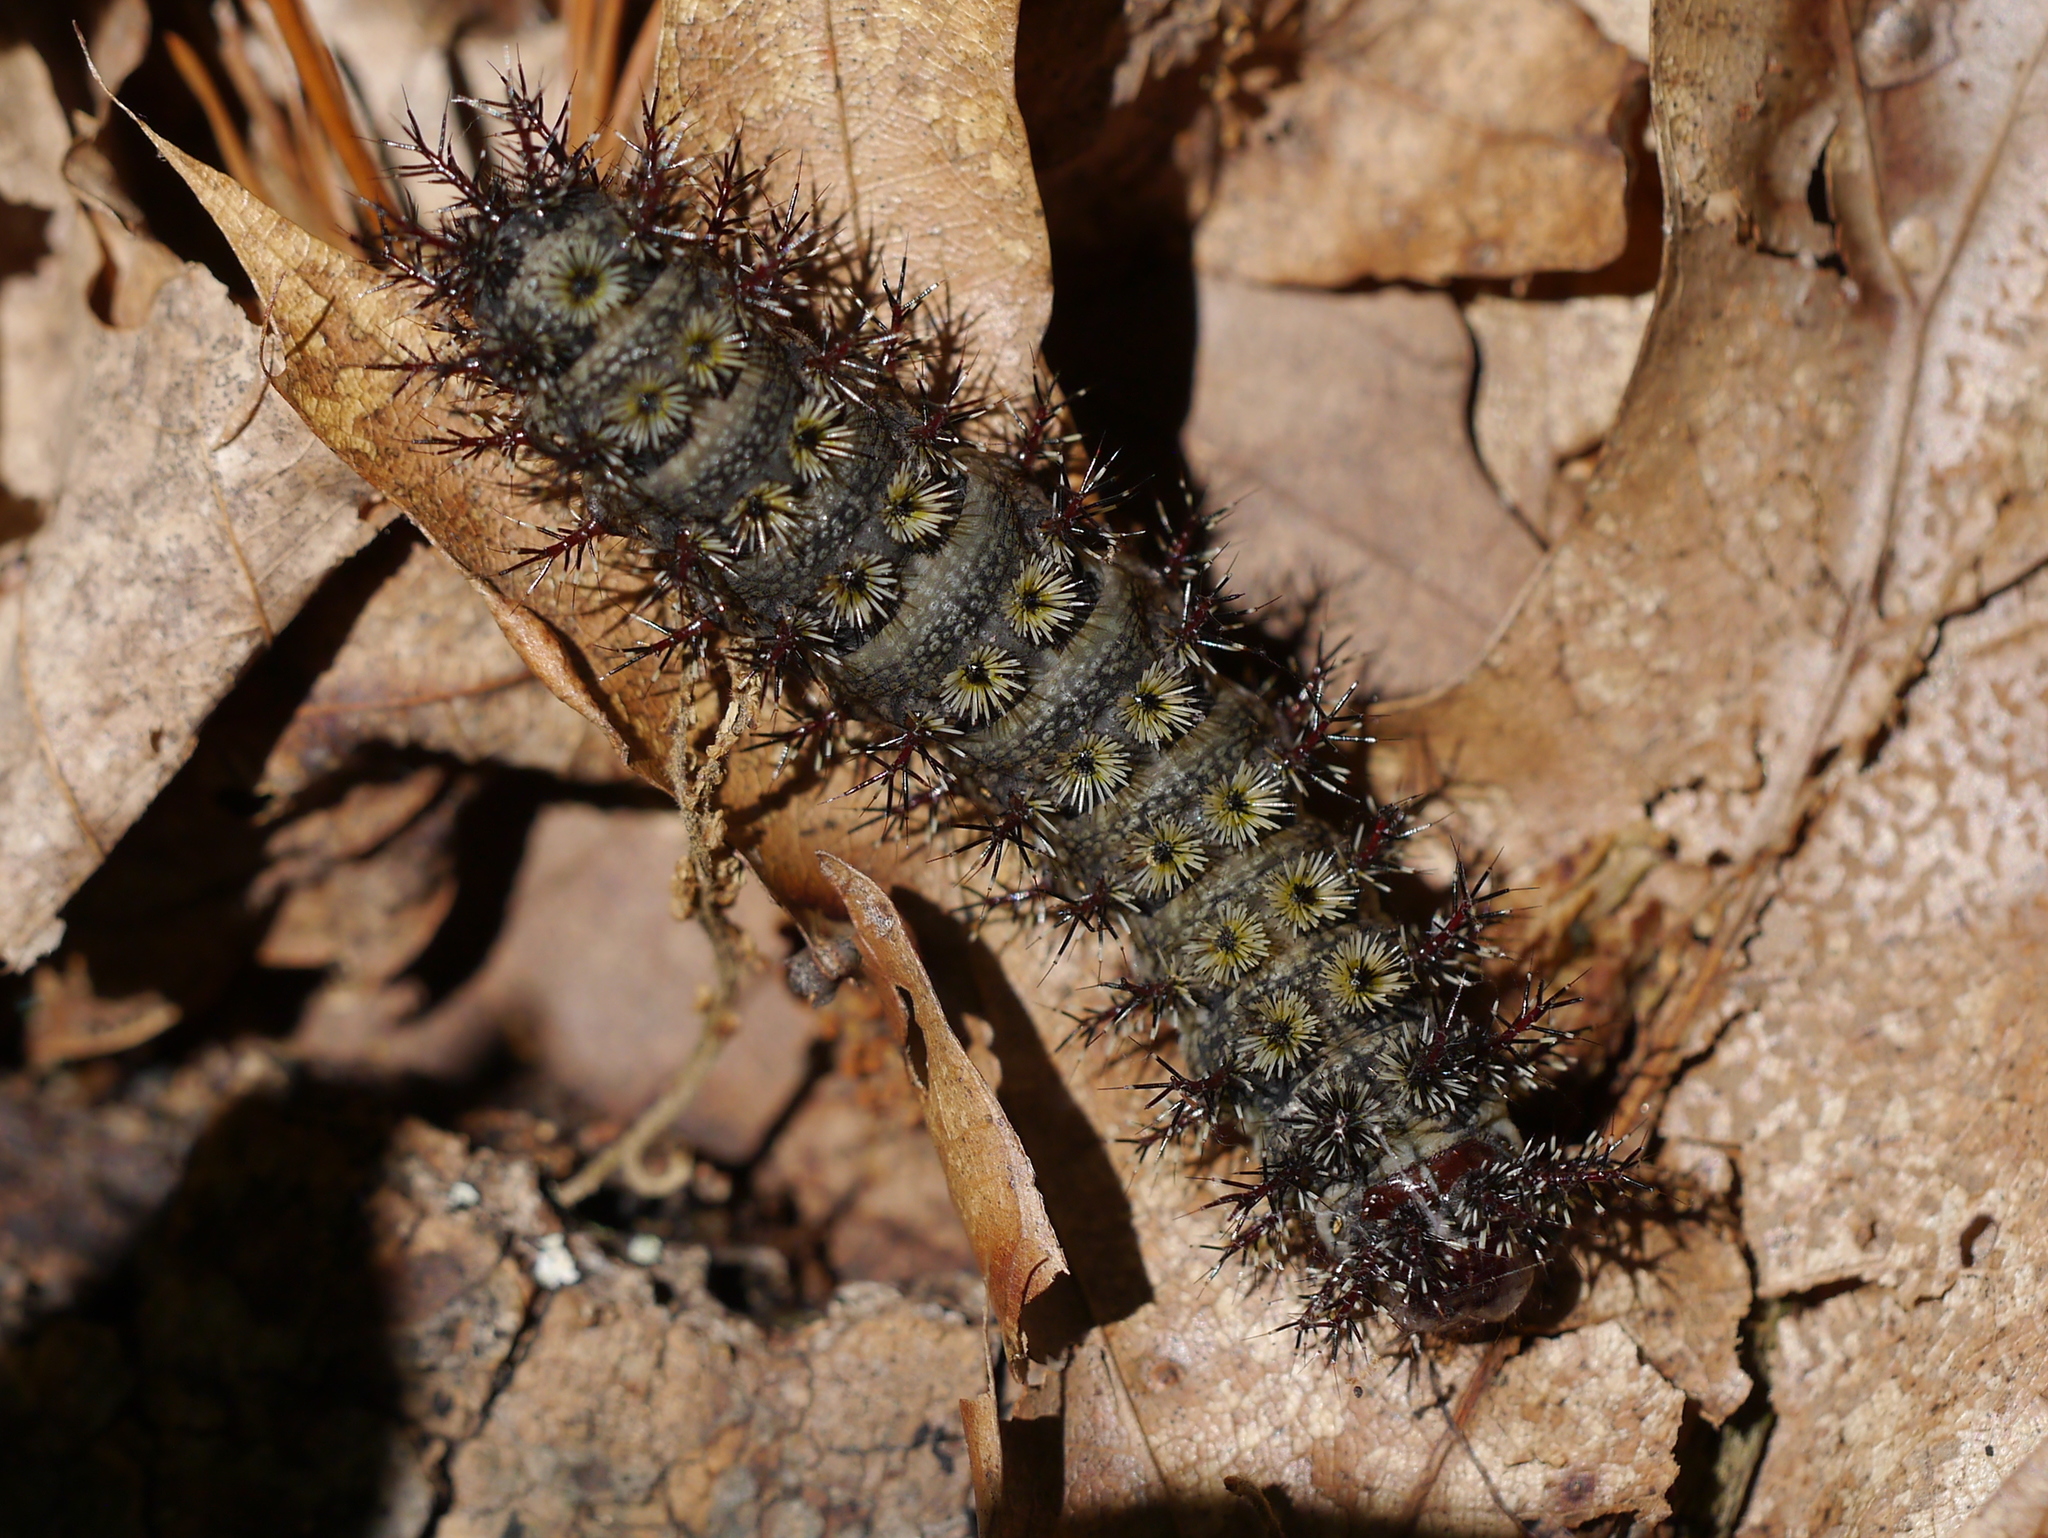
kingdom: Animalia
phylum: Arthropoda
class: Insecta
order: Lepidoptera
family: Saturniidae
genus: Hemileuca
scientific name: Hemileuca maia
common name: Eastern buckmoth
